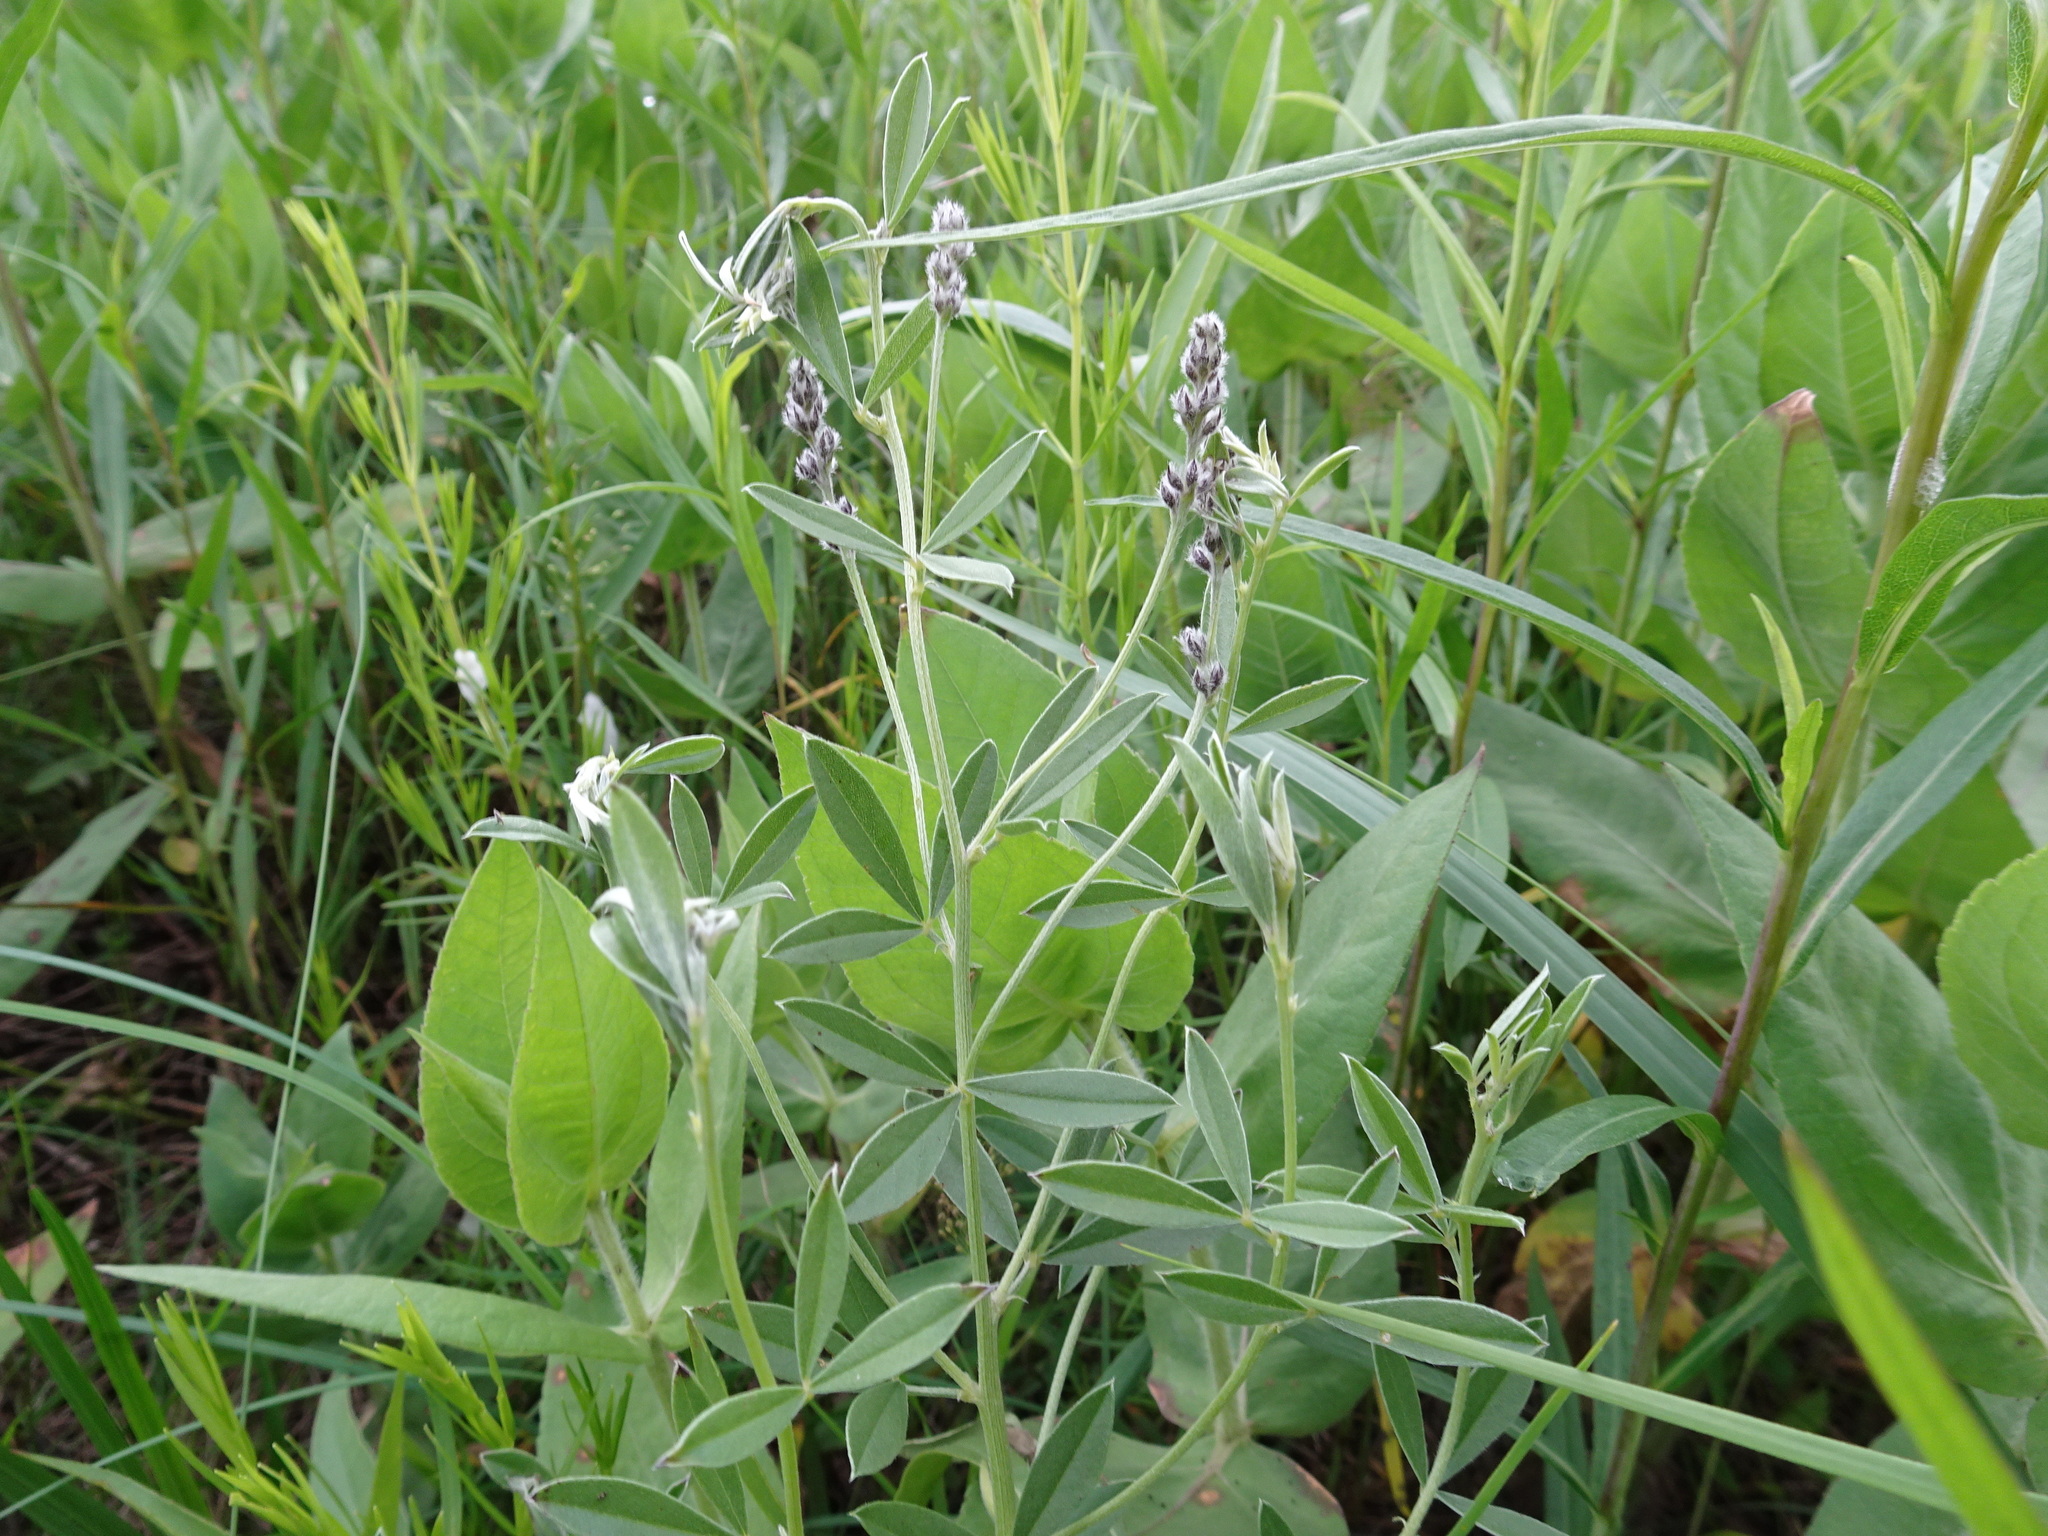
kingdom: Plantae
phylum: Tracheophyta
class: Magnoliopsida
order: Fabales
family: Fabaceae
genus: Pediomelum
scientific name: Pediomelum tenuiflorum
